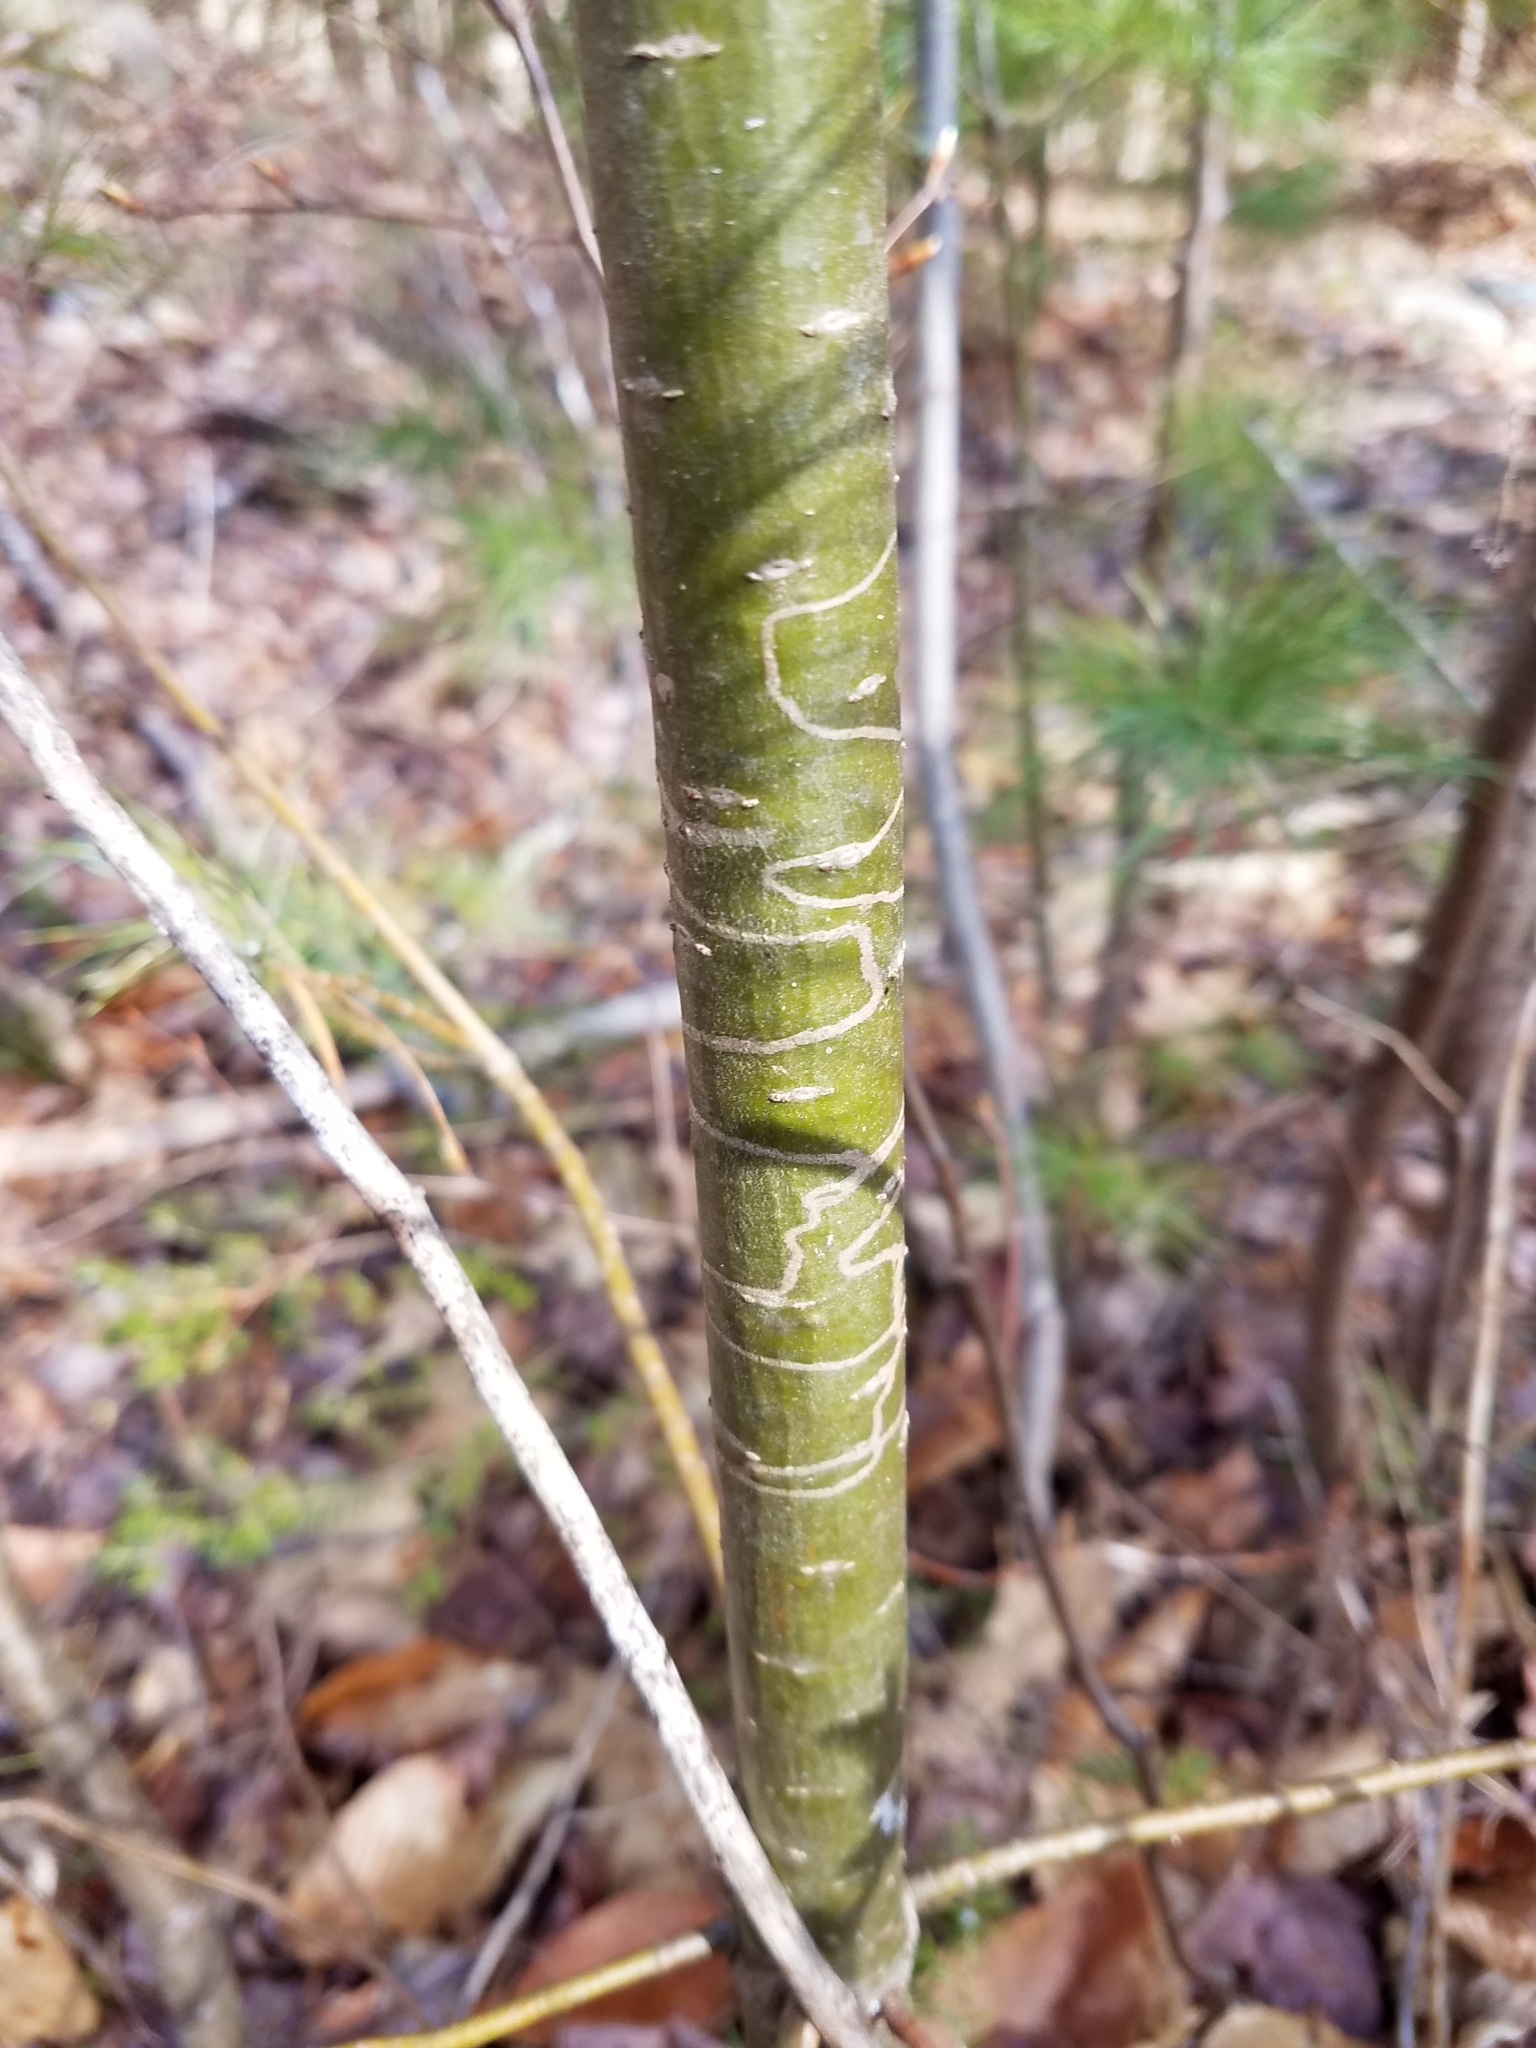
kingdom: Animalia
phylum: Arthropoda
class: Insecta
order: Lepidoptera
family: Gracillariidae
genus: Marmara
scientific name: Marmara fasciella
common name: White pine barkminer moth
